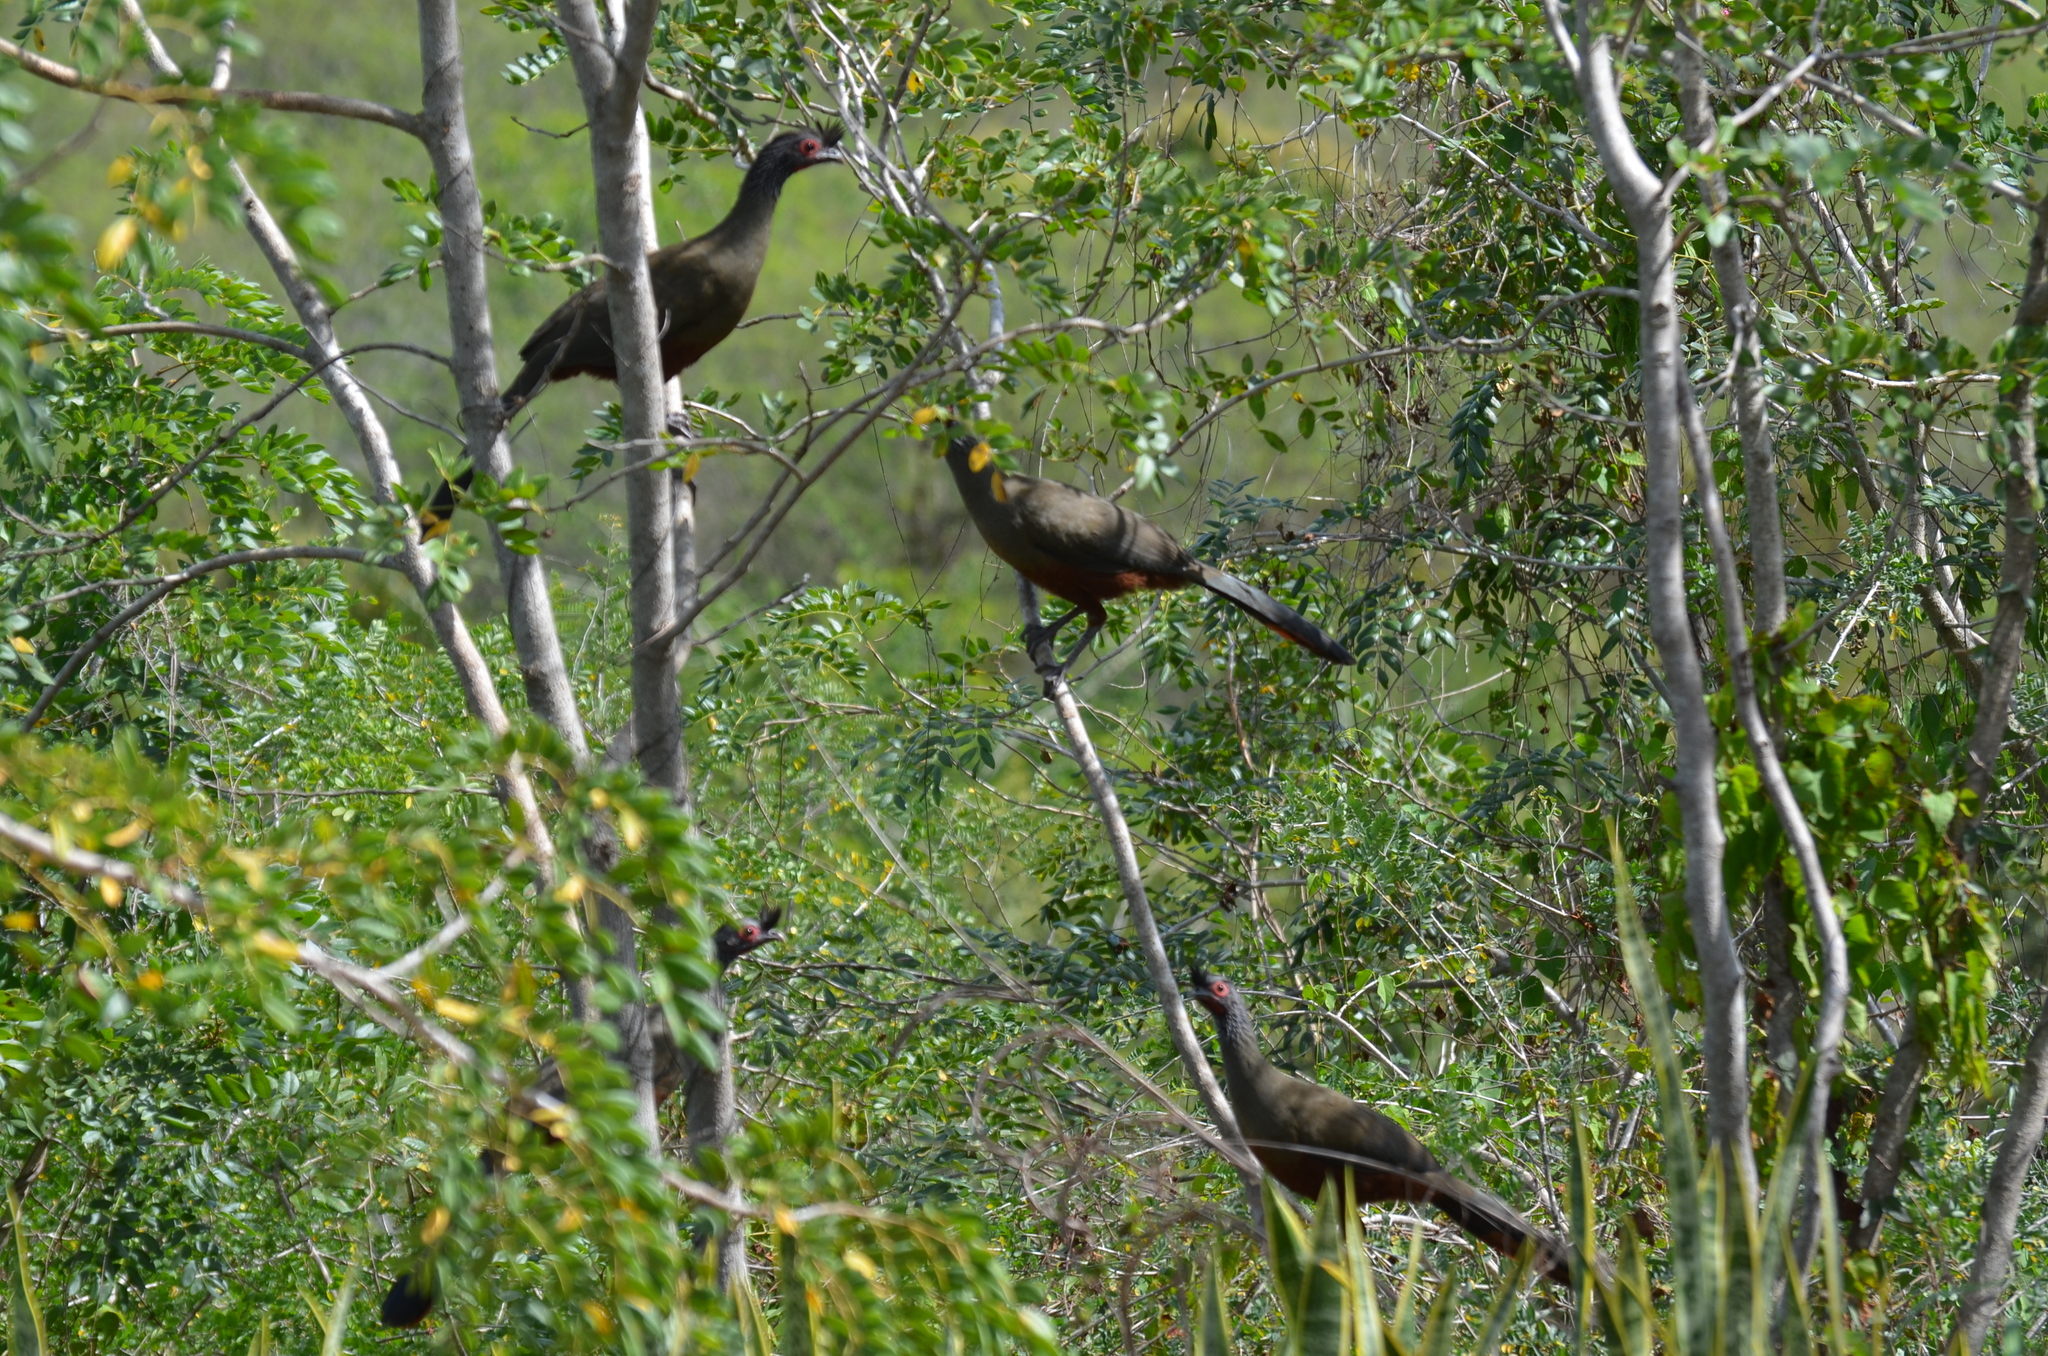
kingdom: Animalia
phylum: Chordata
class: Aves
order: Galliformes
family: Cracidae
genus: Ortalis
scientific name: Ortalis wagleri
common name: Rufous-bellied chachalaca
